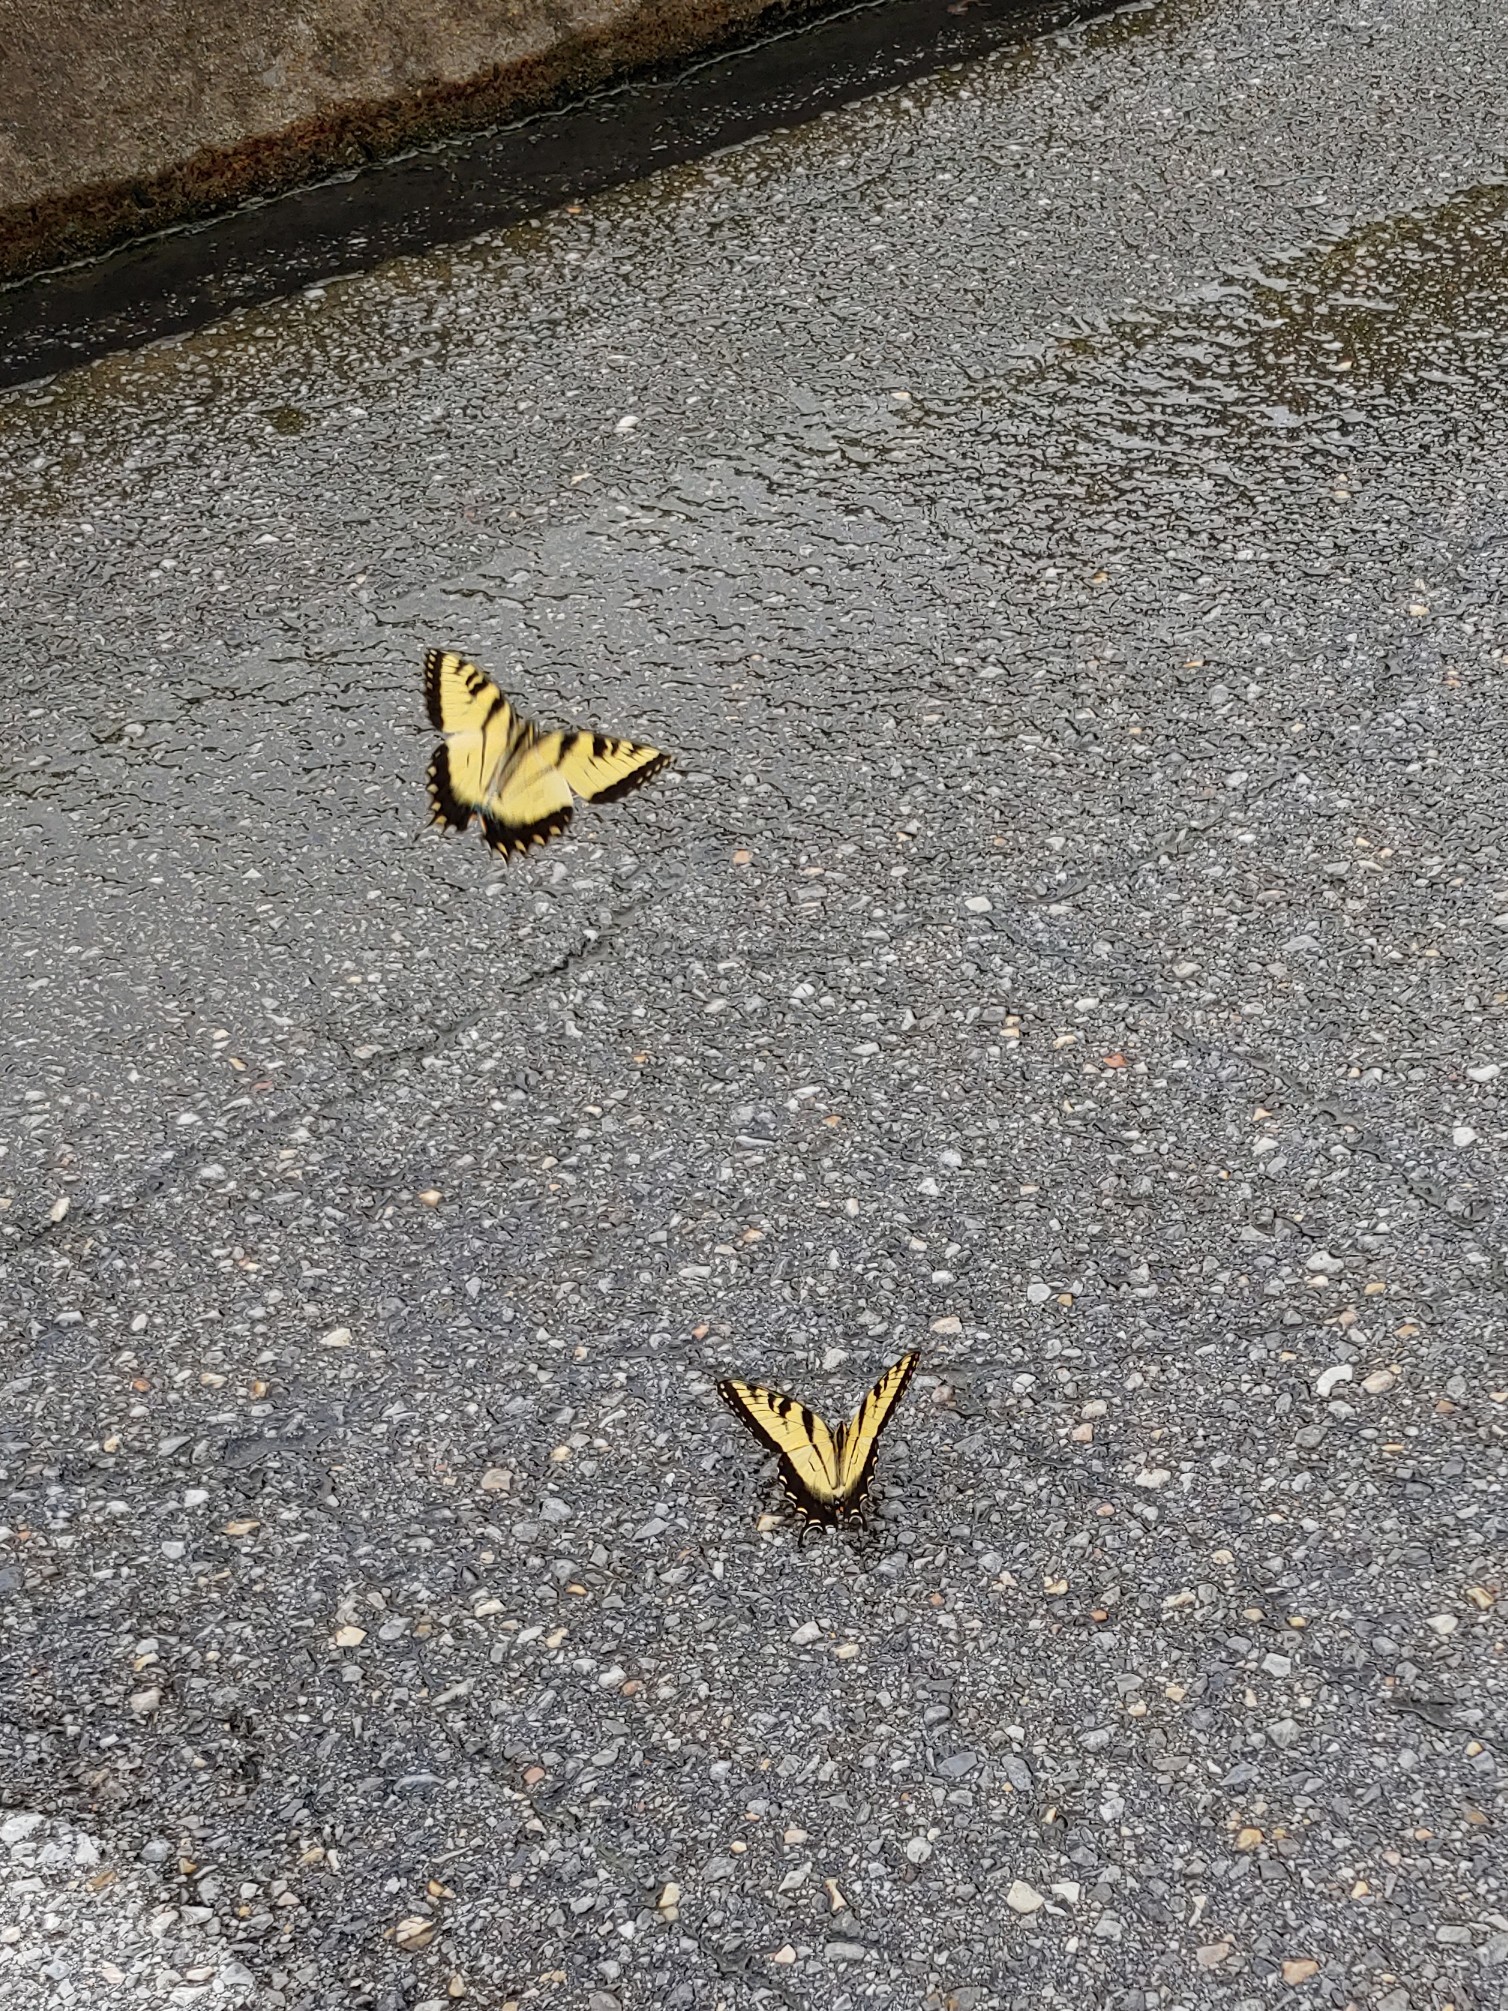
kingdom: Animalia
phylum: Arthropoda
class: Insecta
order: Lepidoptera
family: Papilionidae
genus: Papilio
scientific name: Papilio glaucus
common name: Tiger swallowtail
